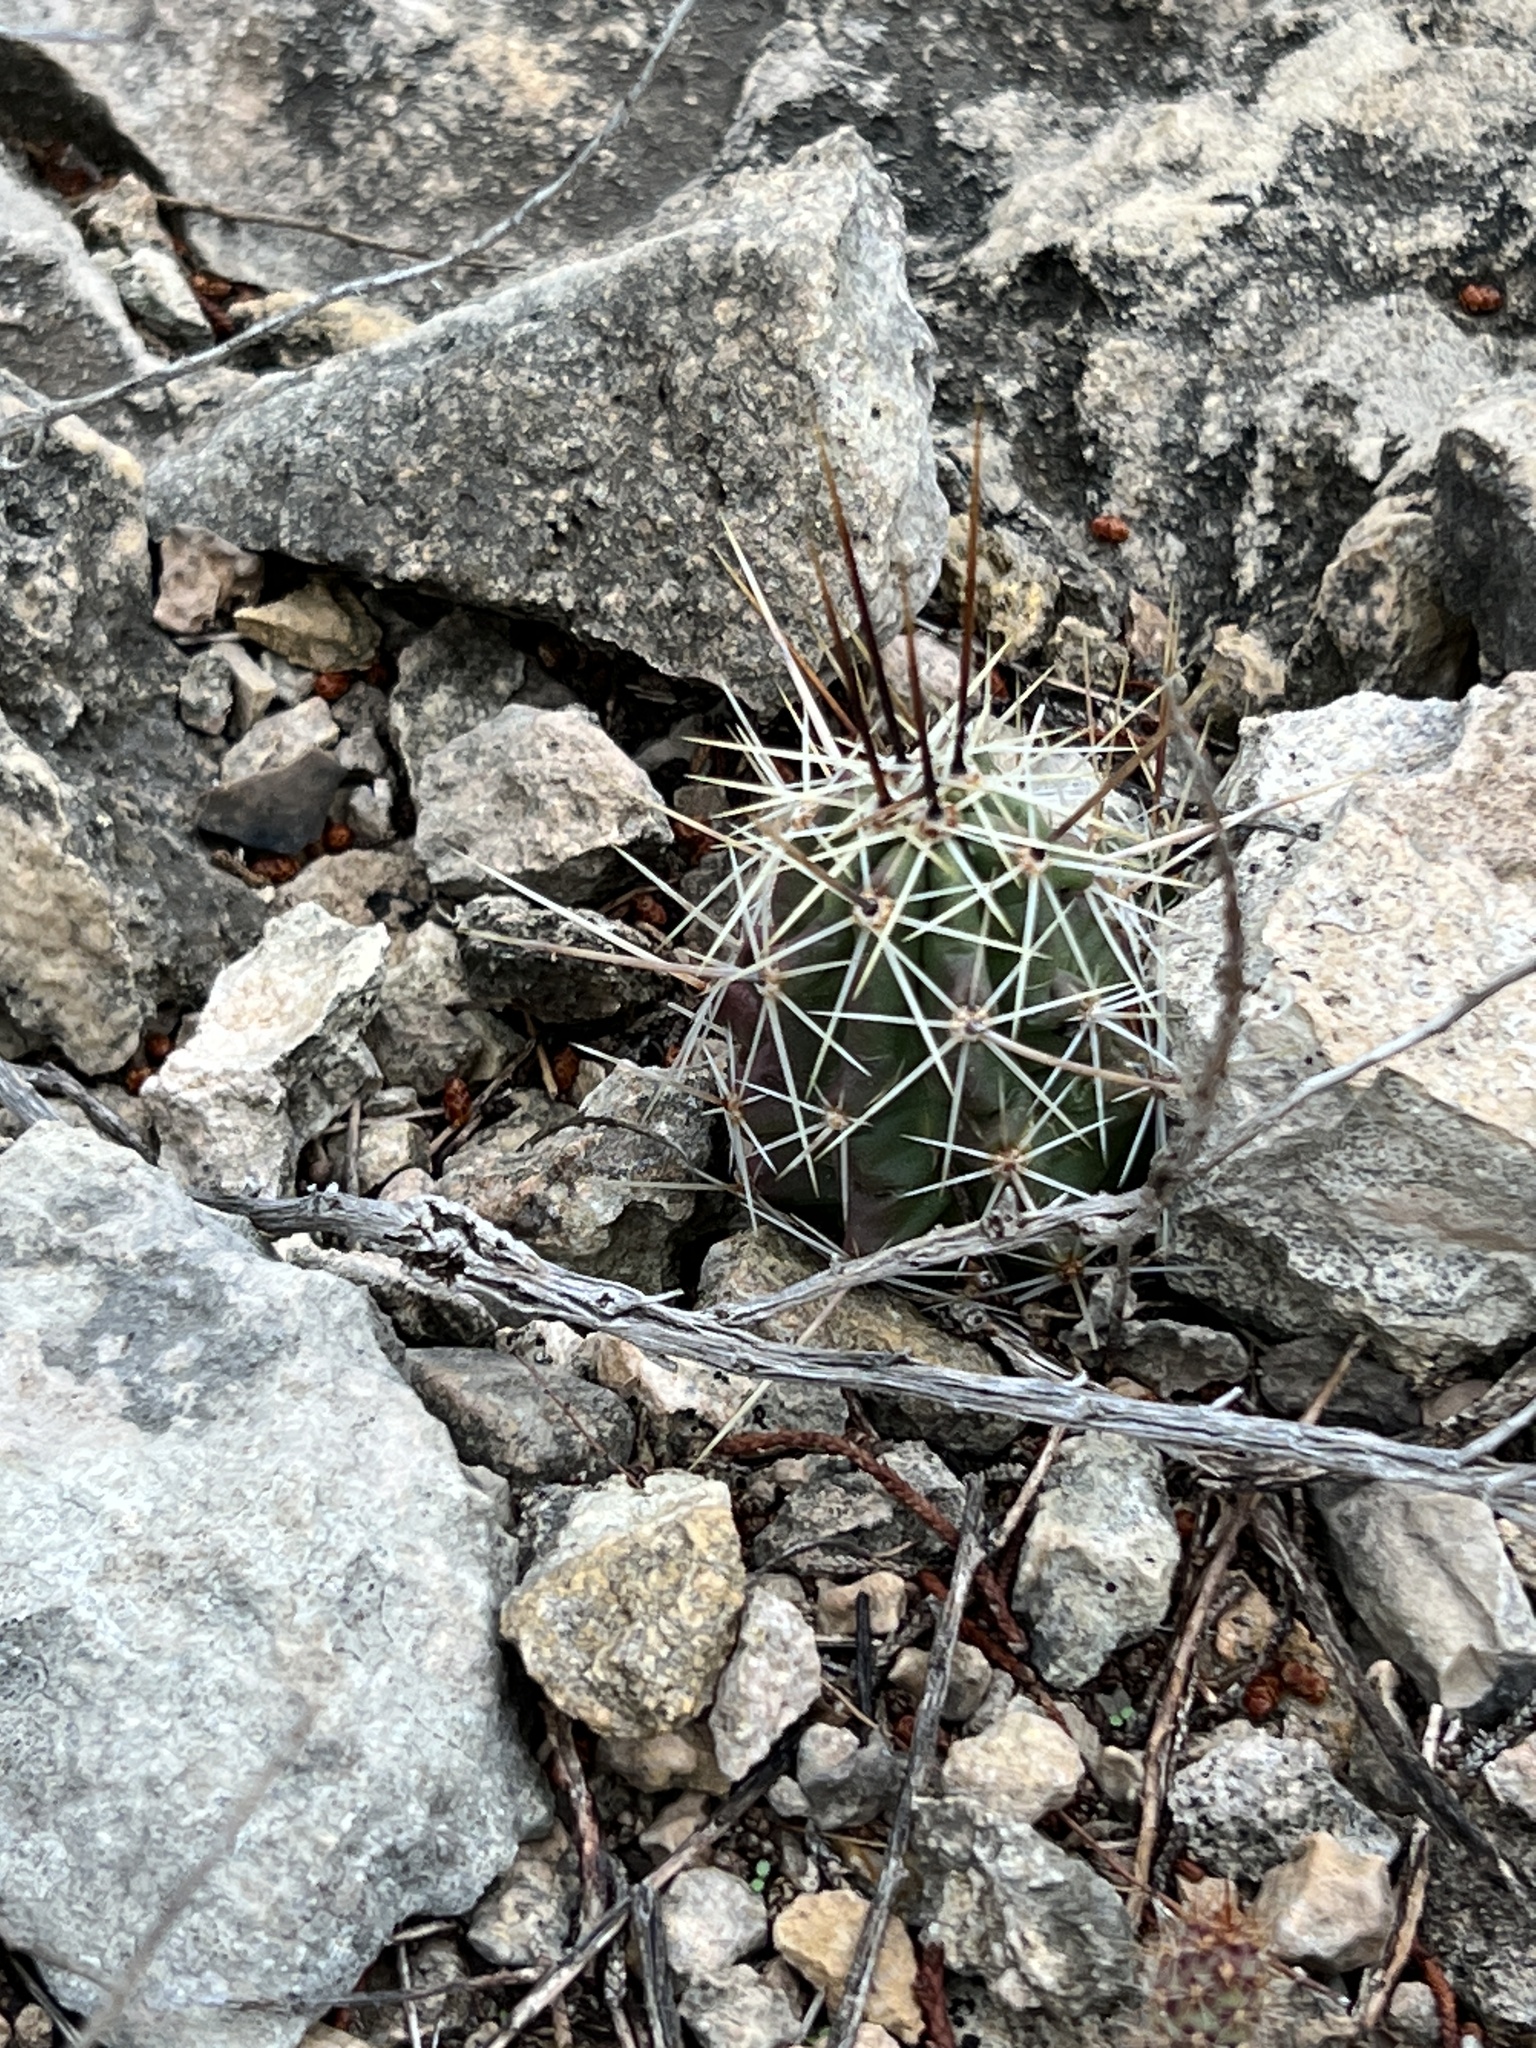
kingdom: Plantae
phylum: Tracheophyta
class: Magnoliopsida
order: Caryophyllales
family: Cactaceae
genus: Echinocereus
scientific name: Echinocereus enneacanthus
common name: Pitaya
